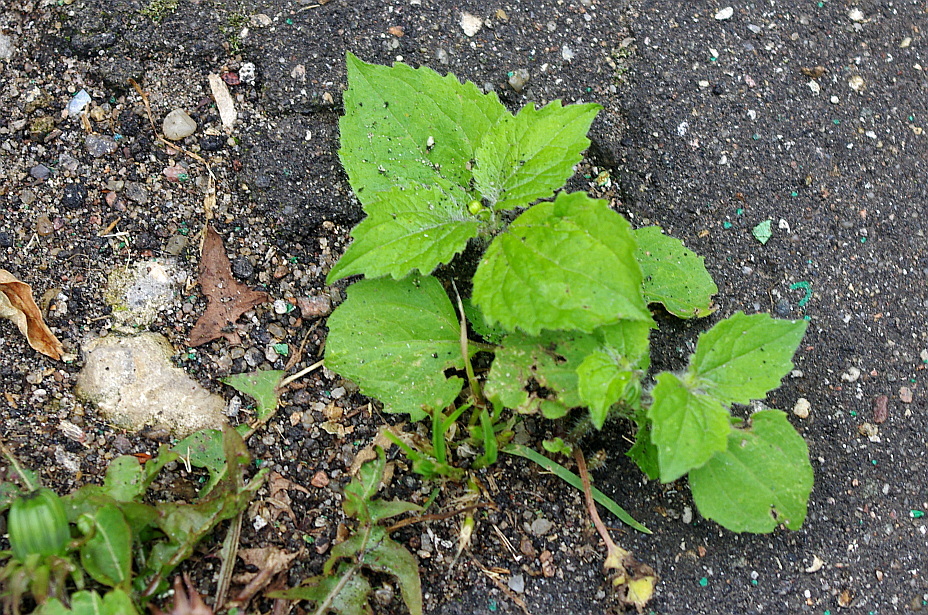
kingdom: Plantae
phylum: Tracheophyta
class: Magnoliopsida
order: Asterales
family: Asteraceae
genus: Galinsoga
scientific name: Galinsoga quadriradiata
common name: Shaggy soldier
